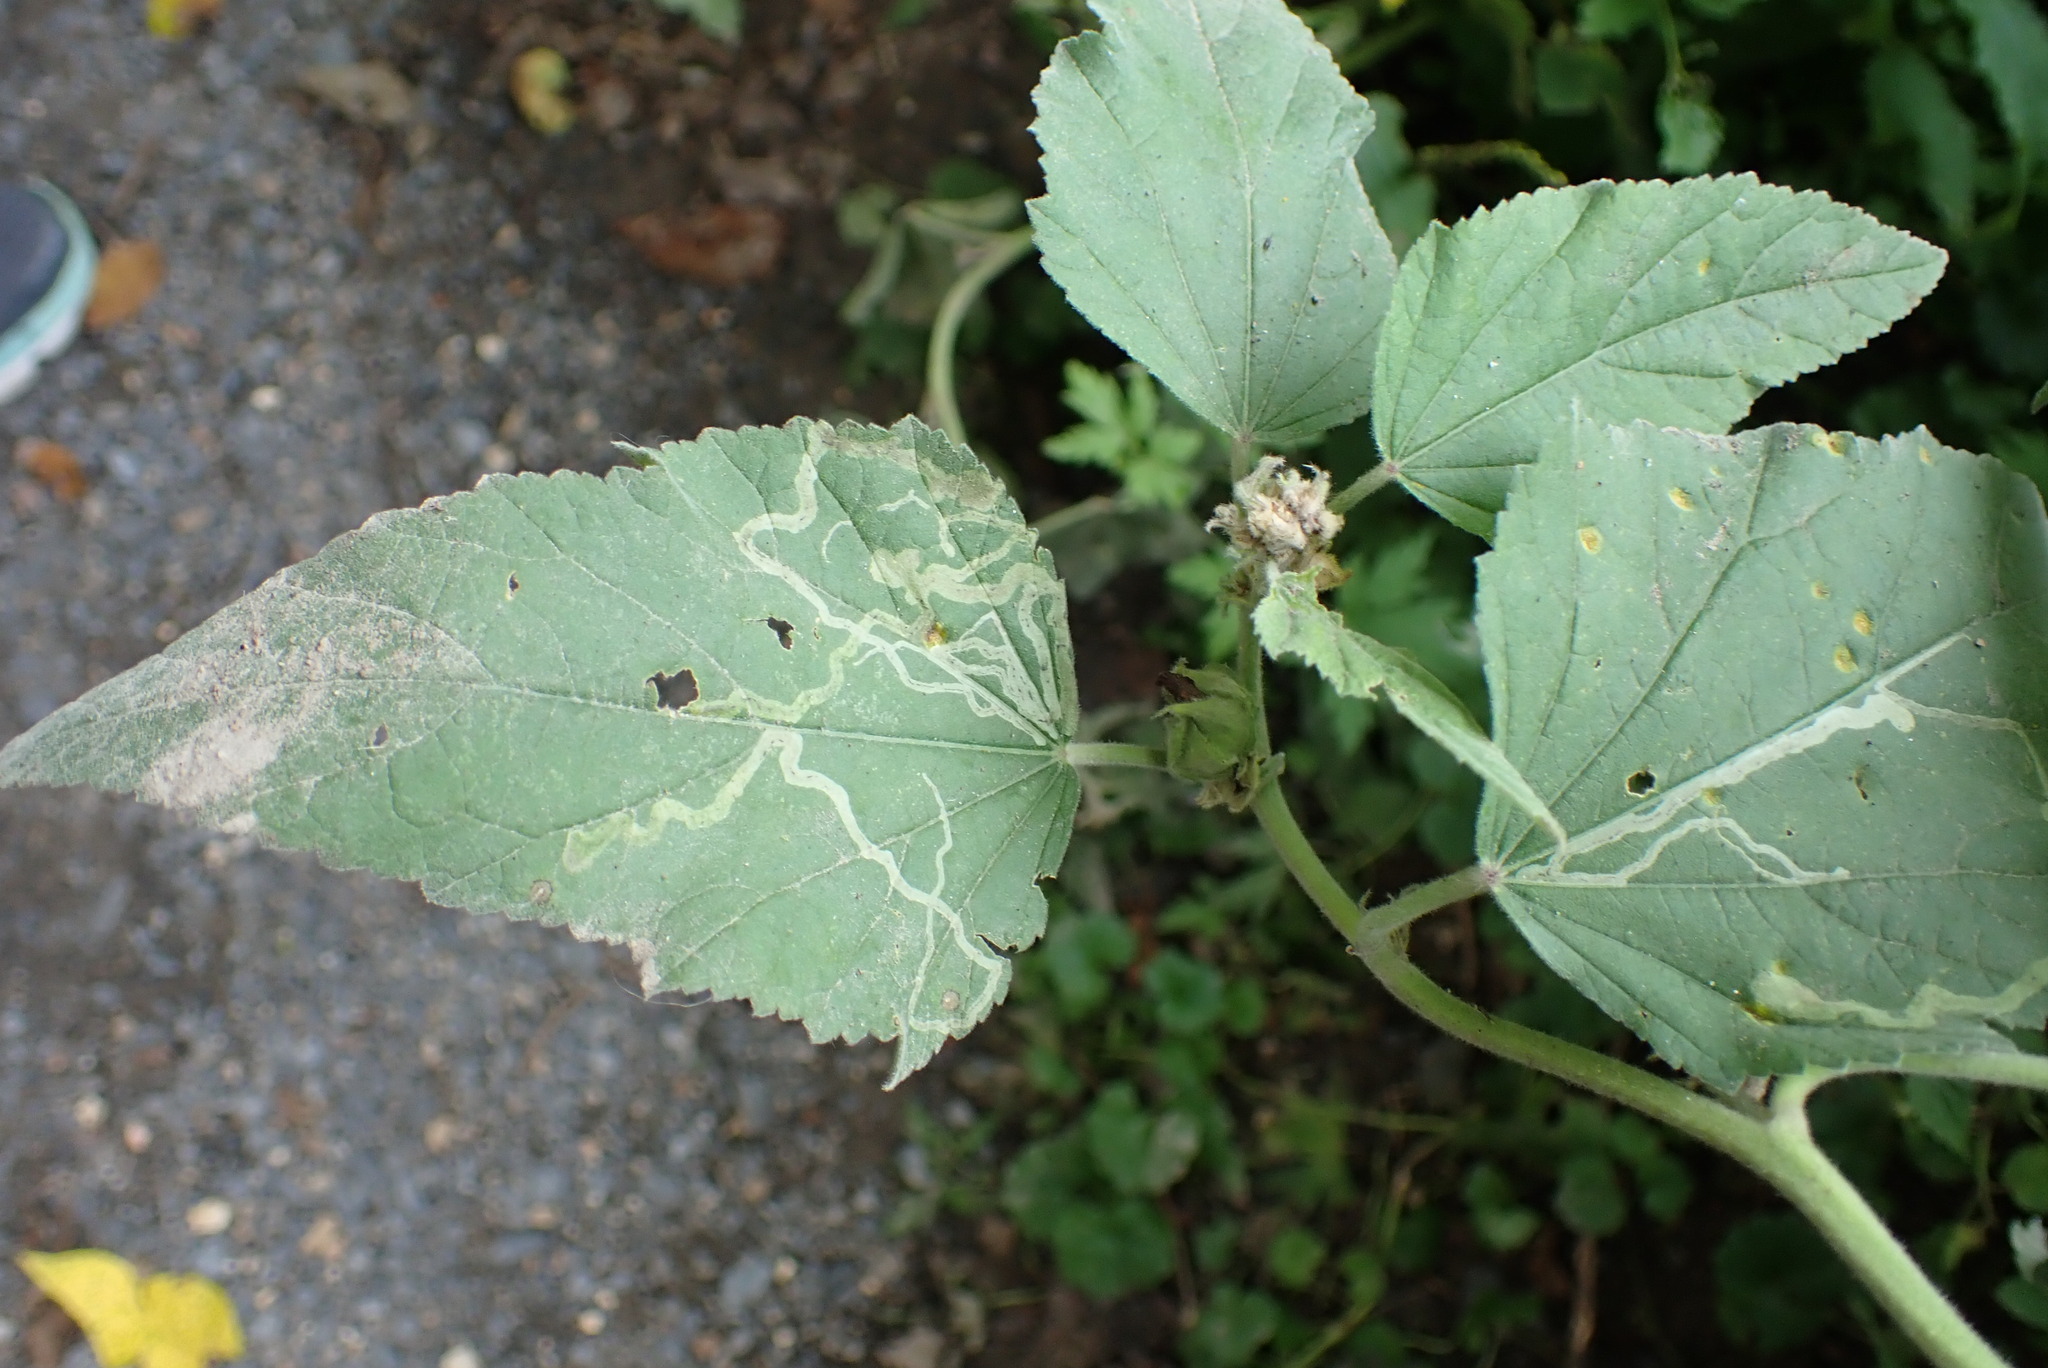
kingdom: Animalia
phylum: Arthropoda
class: Insecta
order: Diptera
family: Agromyzidae
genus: Calycomyza
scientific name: Calycomyza malvae
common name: Mallow leaf miner
